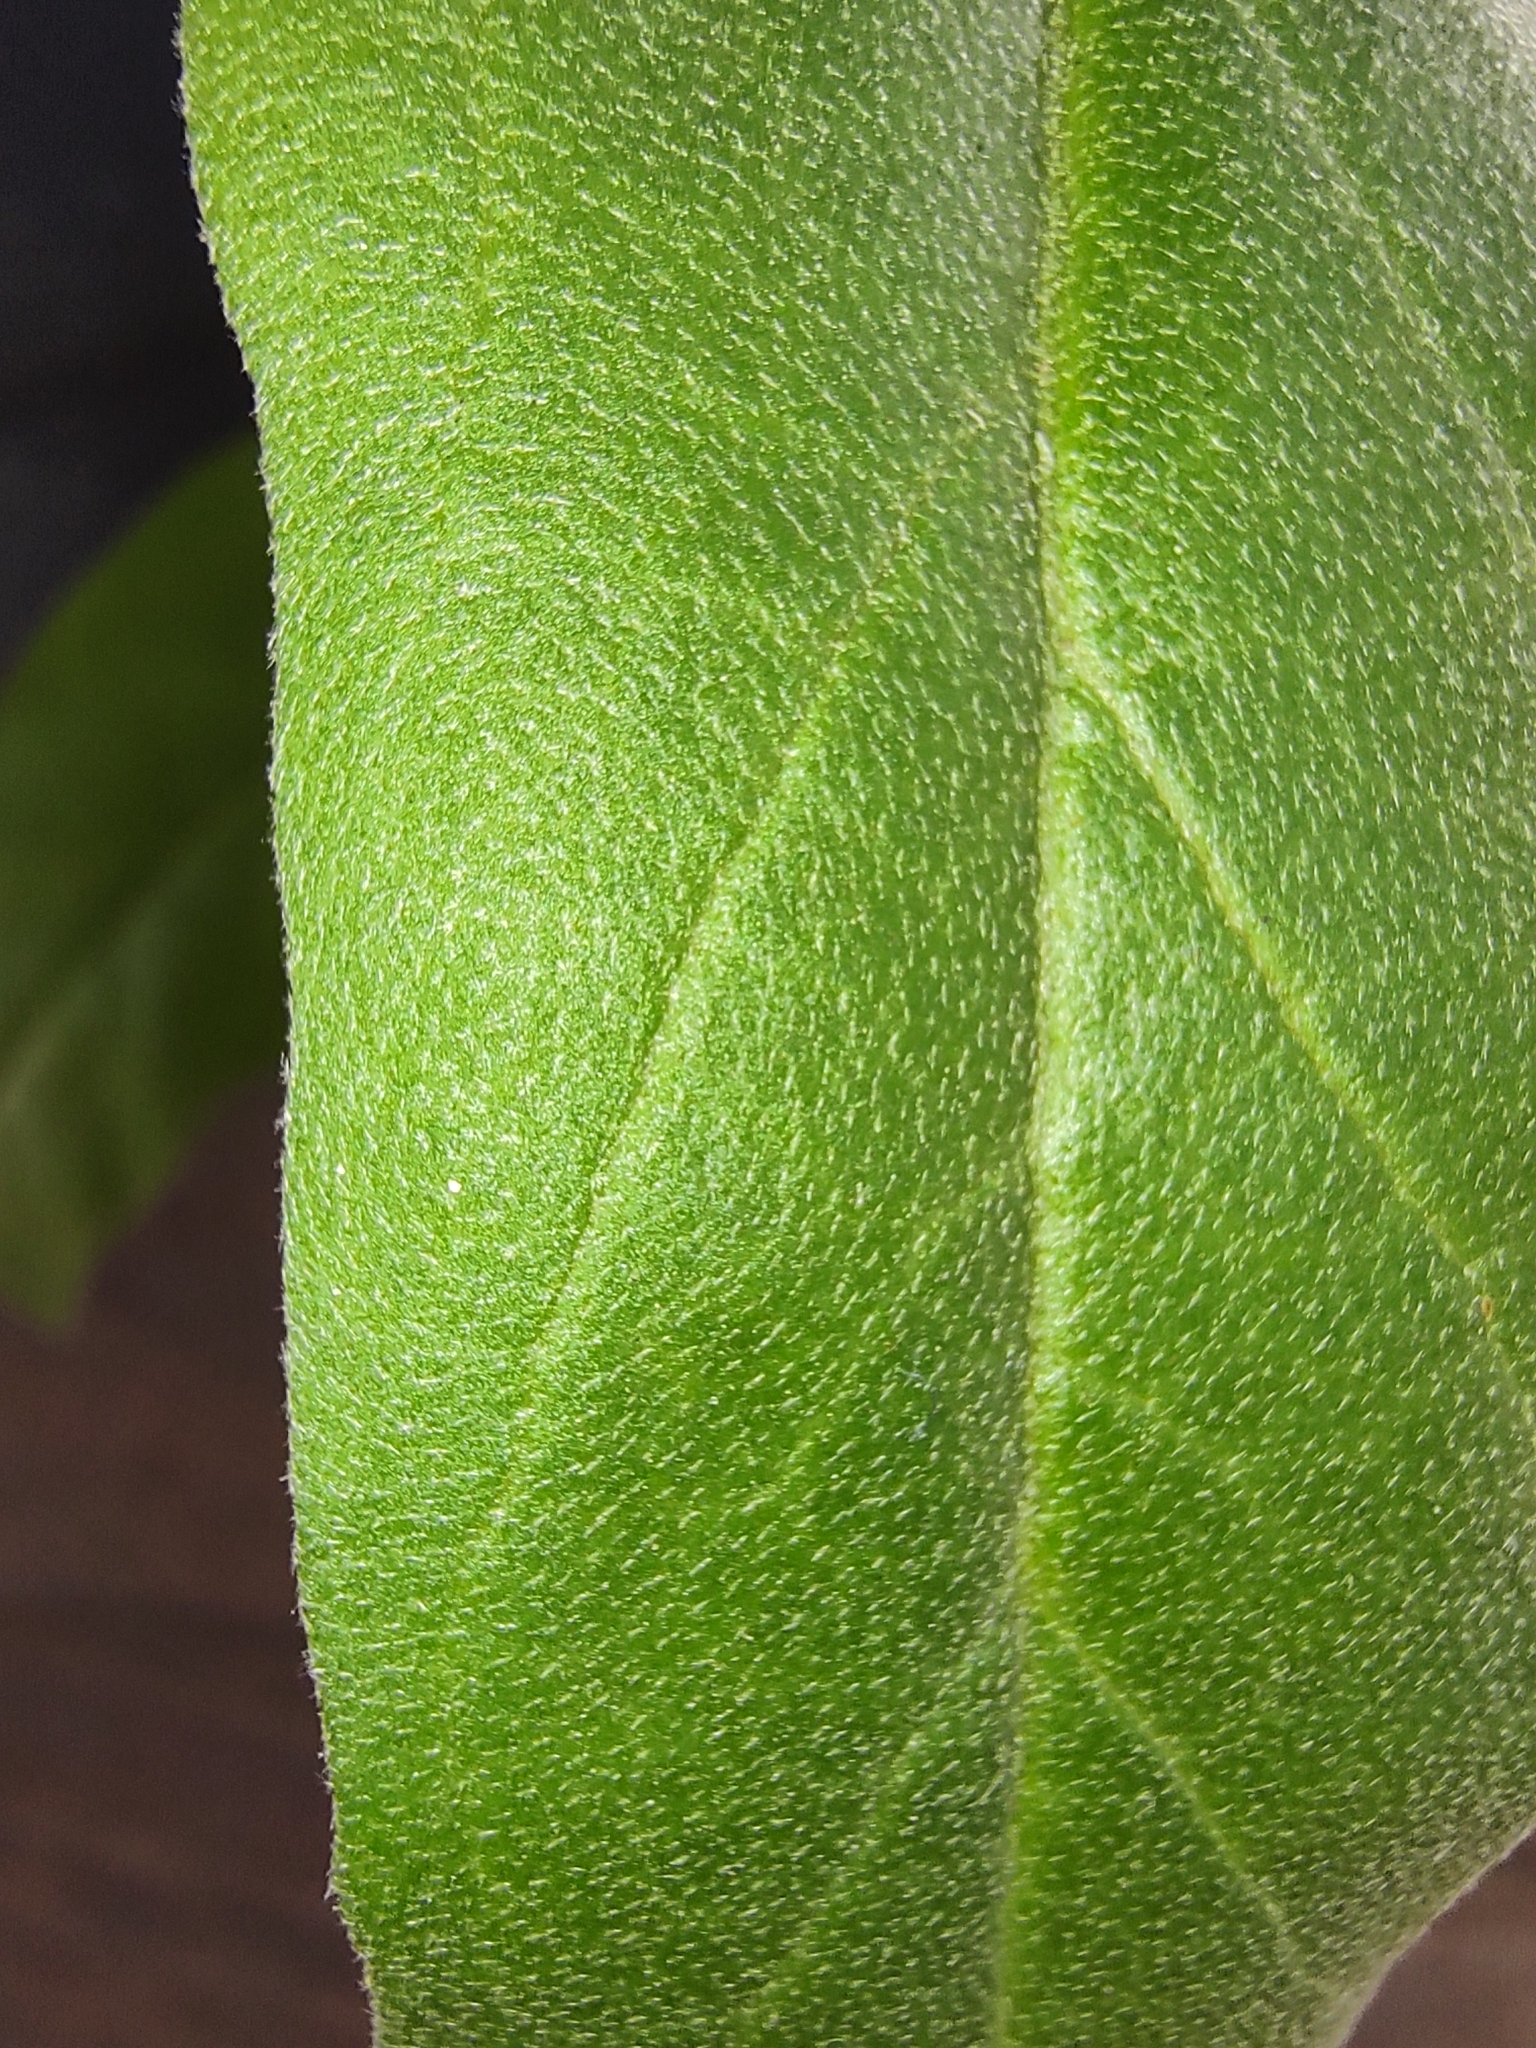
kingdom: Plantae
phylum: Tracheophyta
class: Magnoliopsida
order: Solanales
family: Solanaceae
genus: Solanum
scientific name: Solanum elaeagnifolium
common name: Silverleaf nightshade
